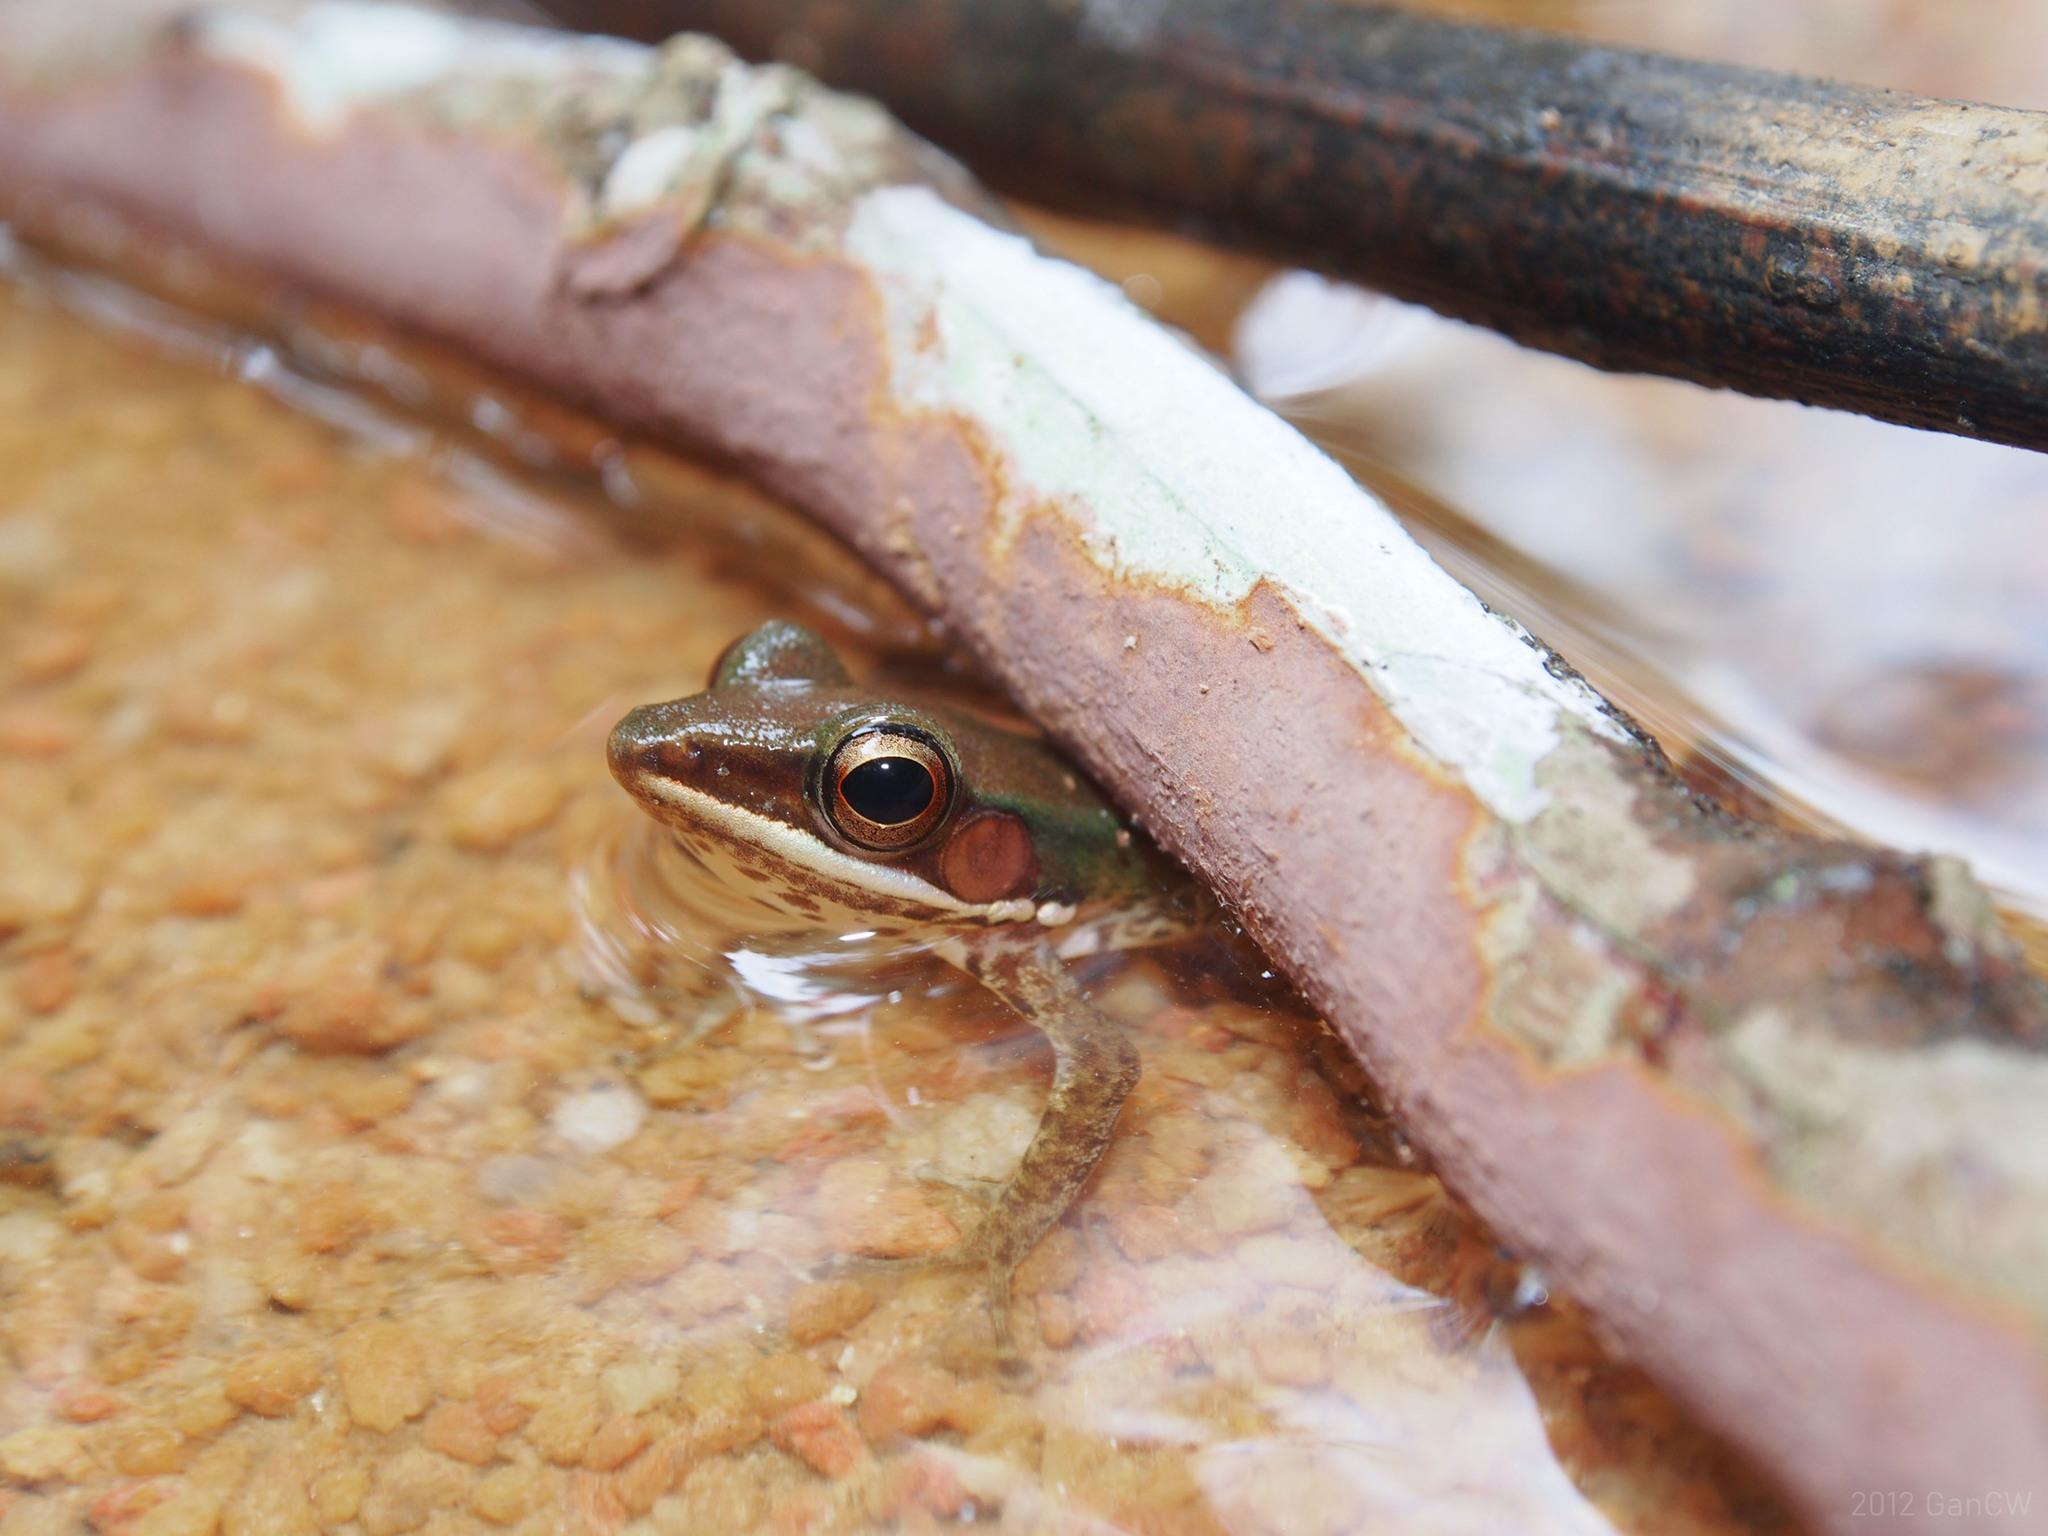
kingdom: Animalia
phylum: Chordata
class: Amphibia
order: Anura
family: Ranidae
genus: Chalcorana
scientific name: Chalcorana labialis
